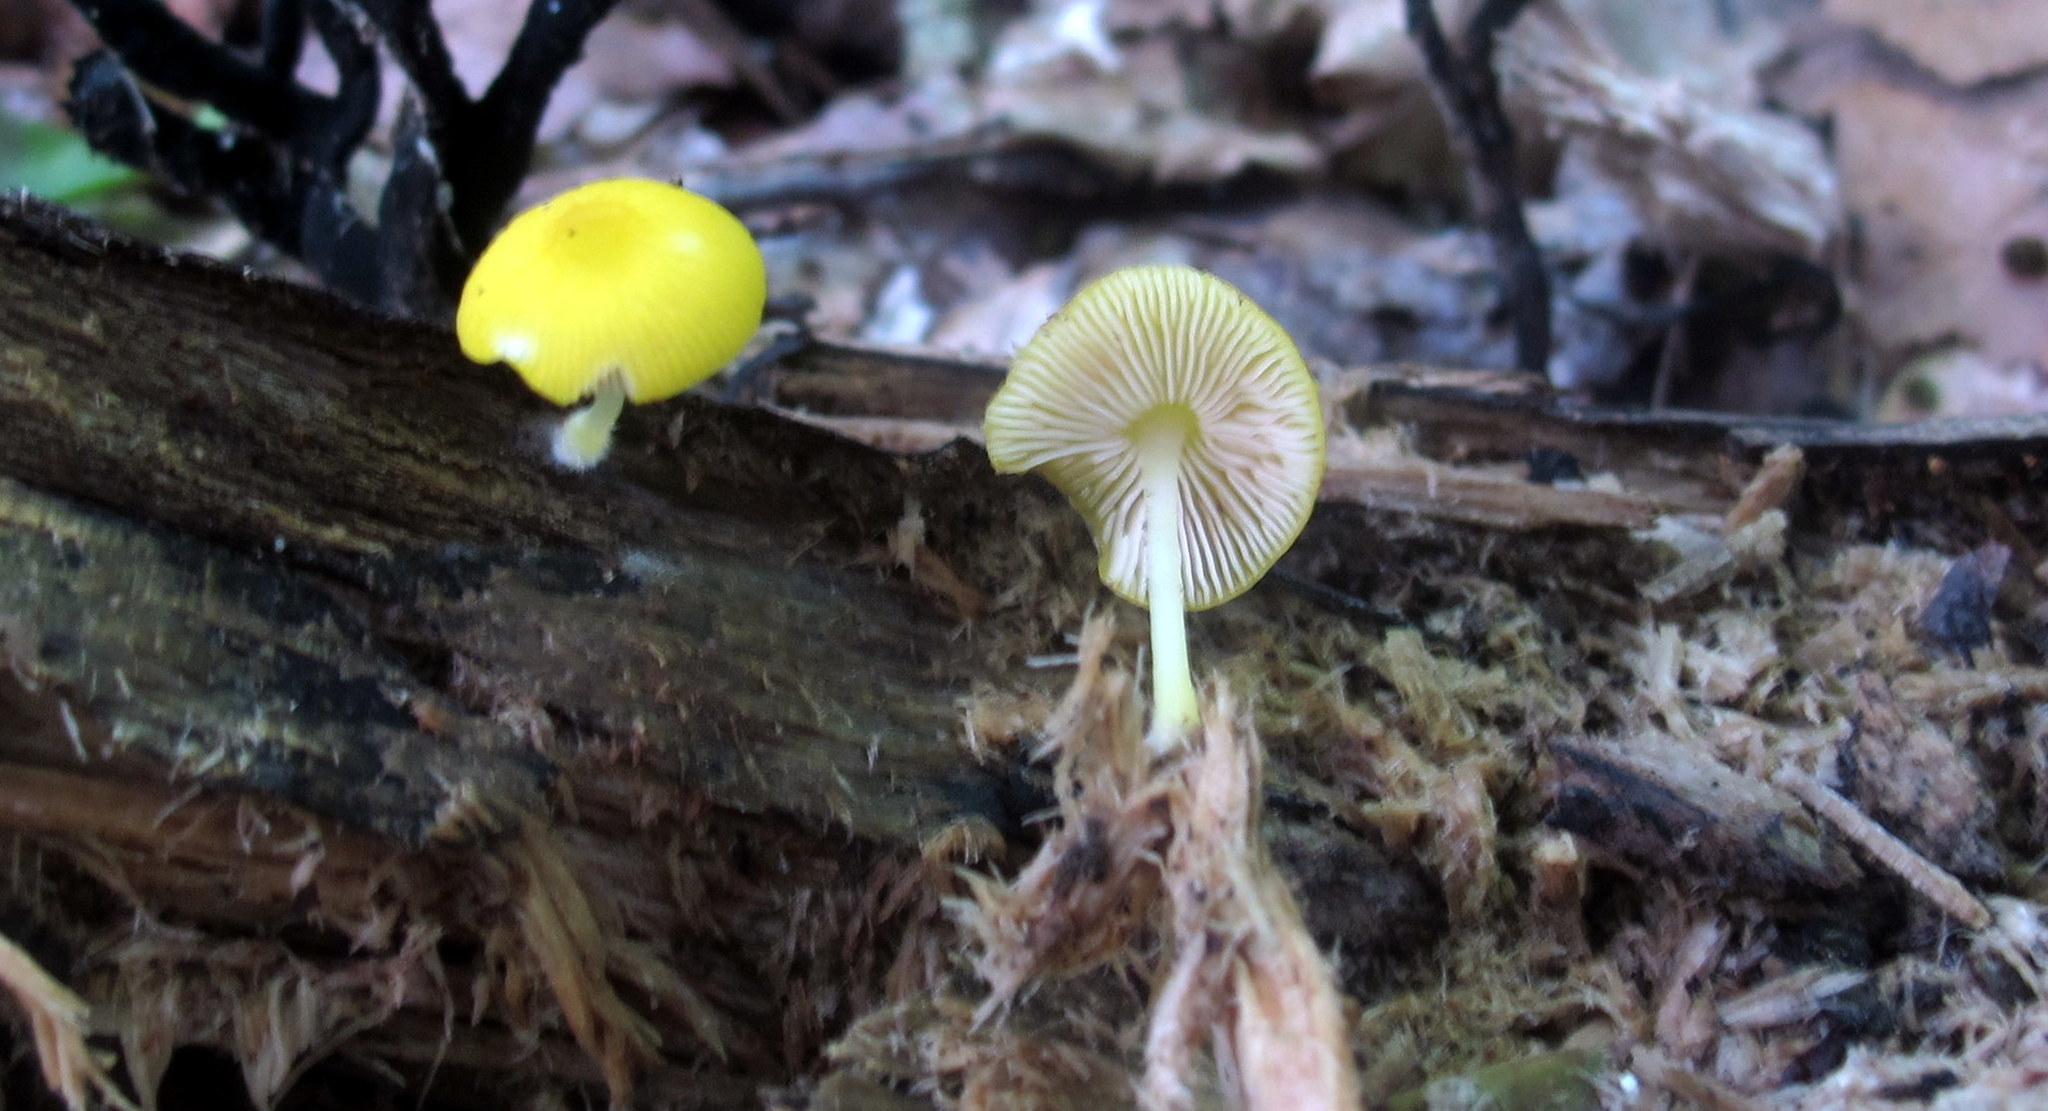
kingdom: Fungi
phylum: Basidiomycota
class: Agaricomycetes
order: Agaricales
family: Pluteaceae
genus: Pluteus
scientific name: Pluteus chrysophlebius
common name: Yellow deer mushroom
